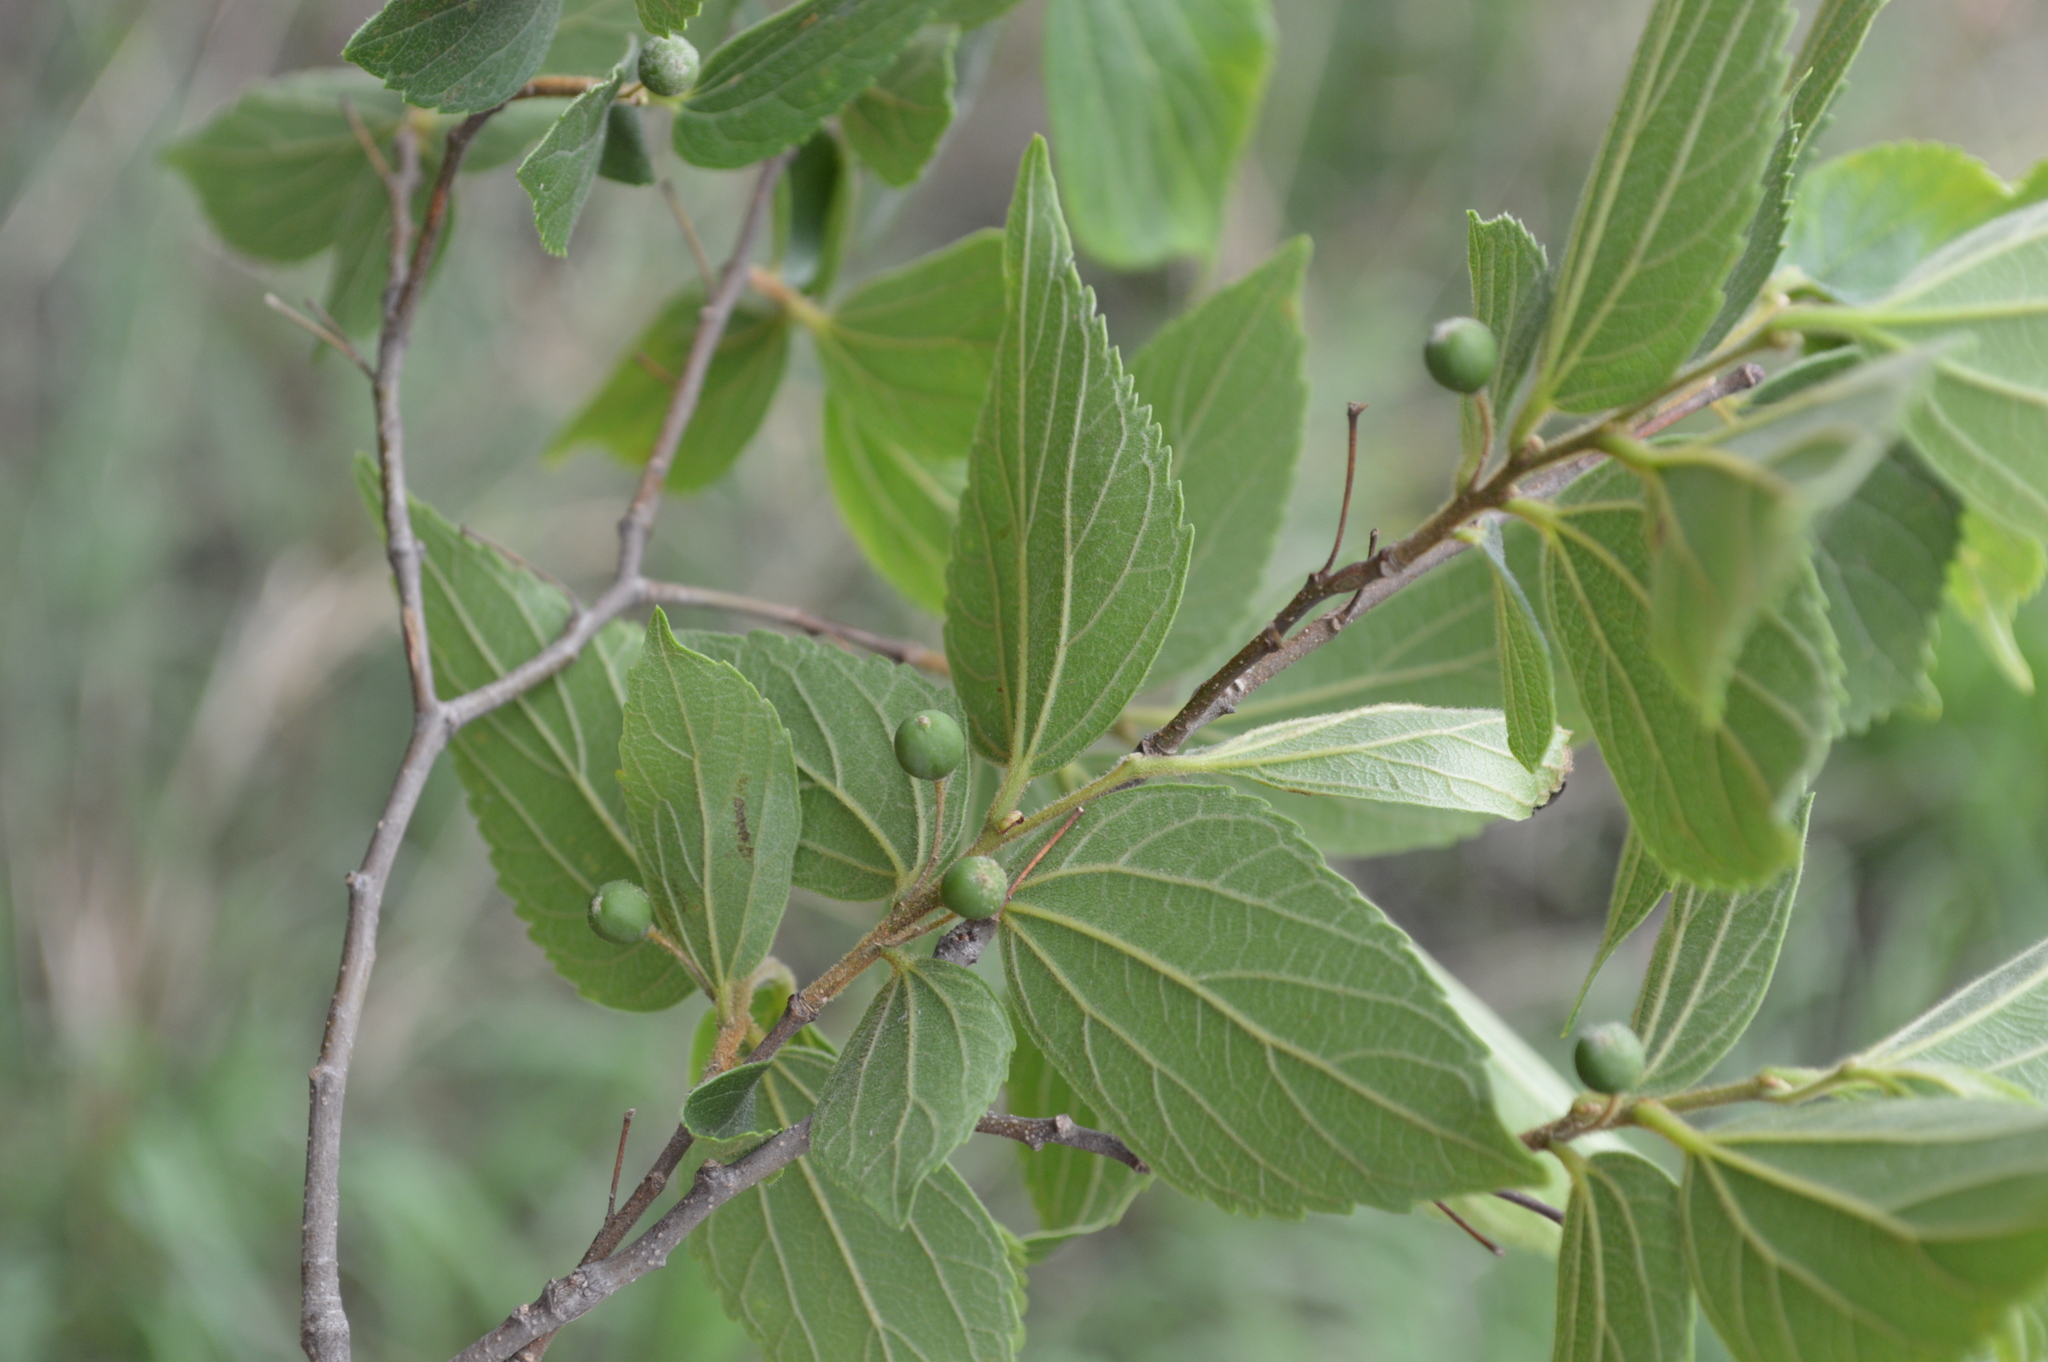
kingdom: Plantae
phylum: Tracheophyta
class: Magnoliopsida
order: Rosales
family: Cannabaceae
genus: Celtis
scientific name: Celtis africana
